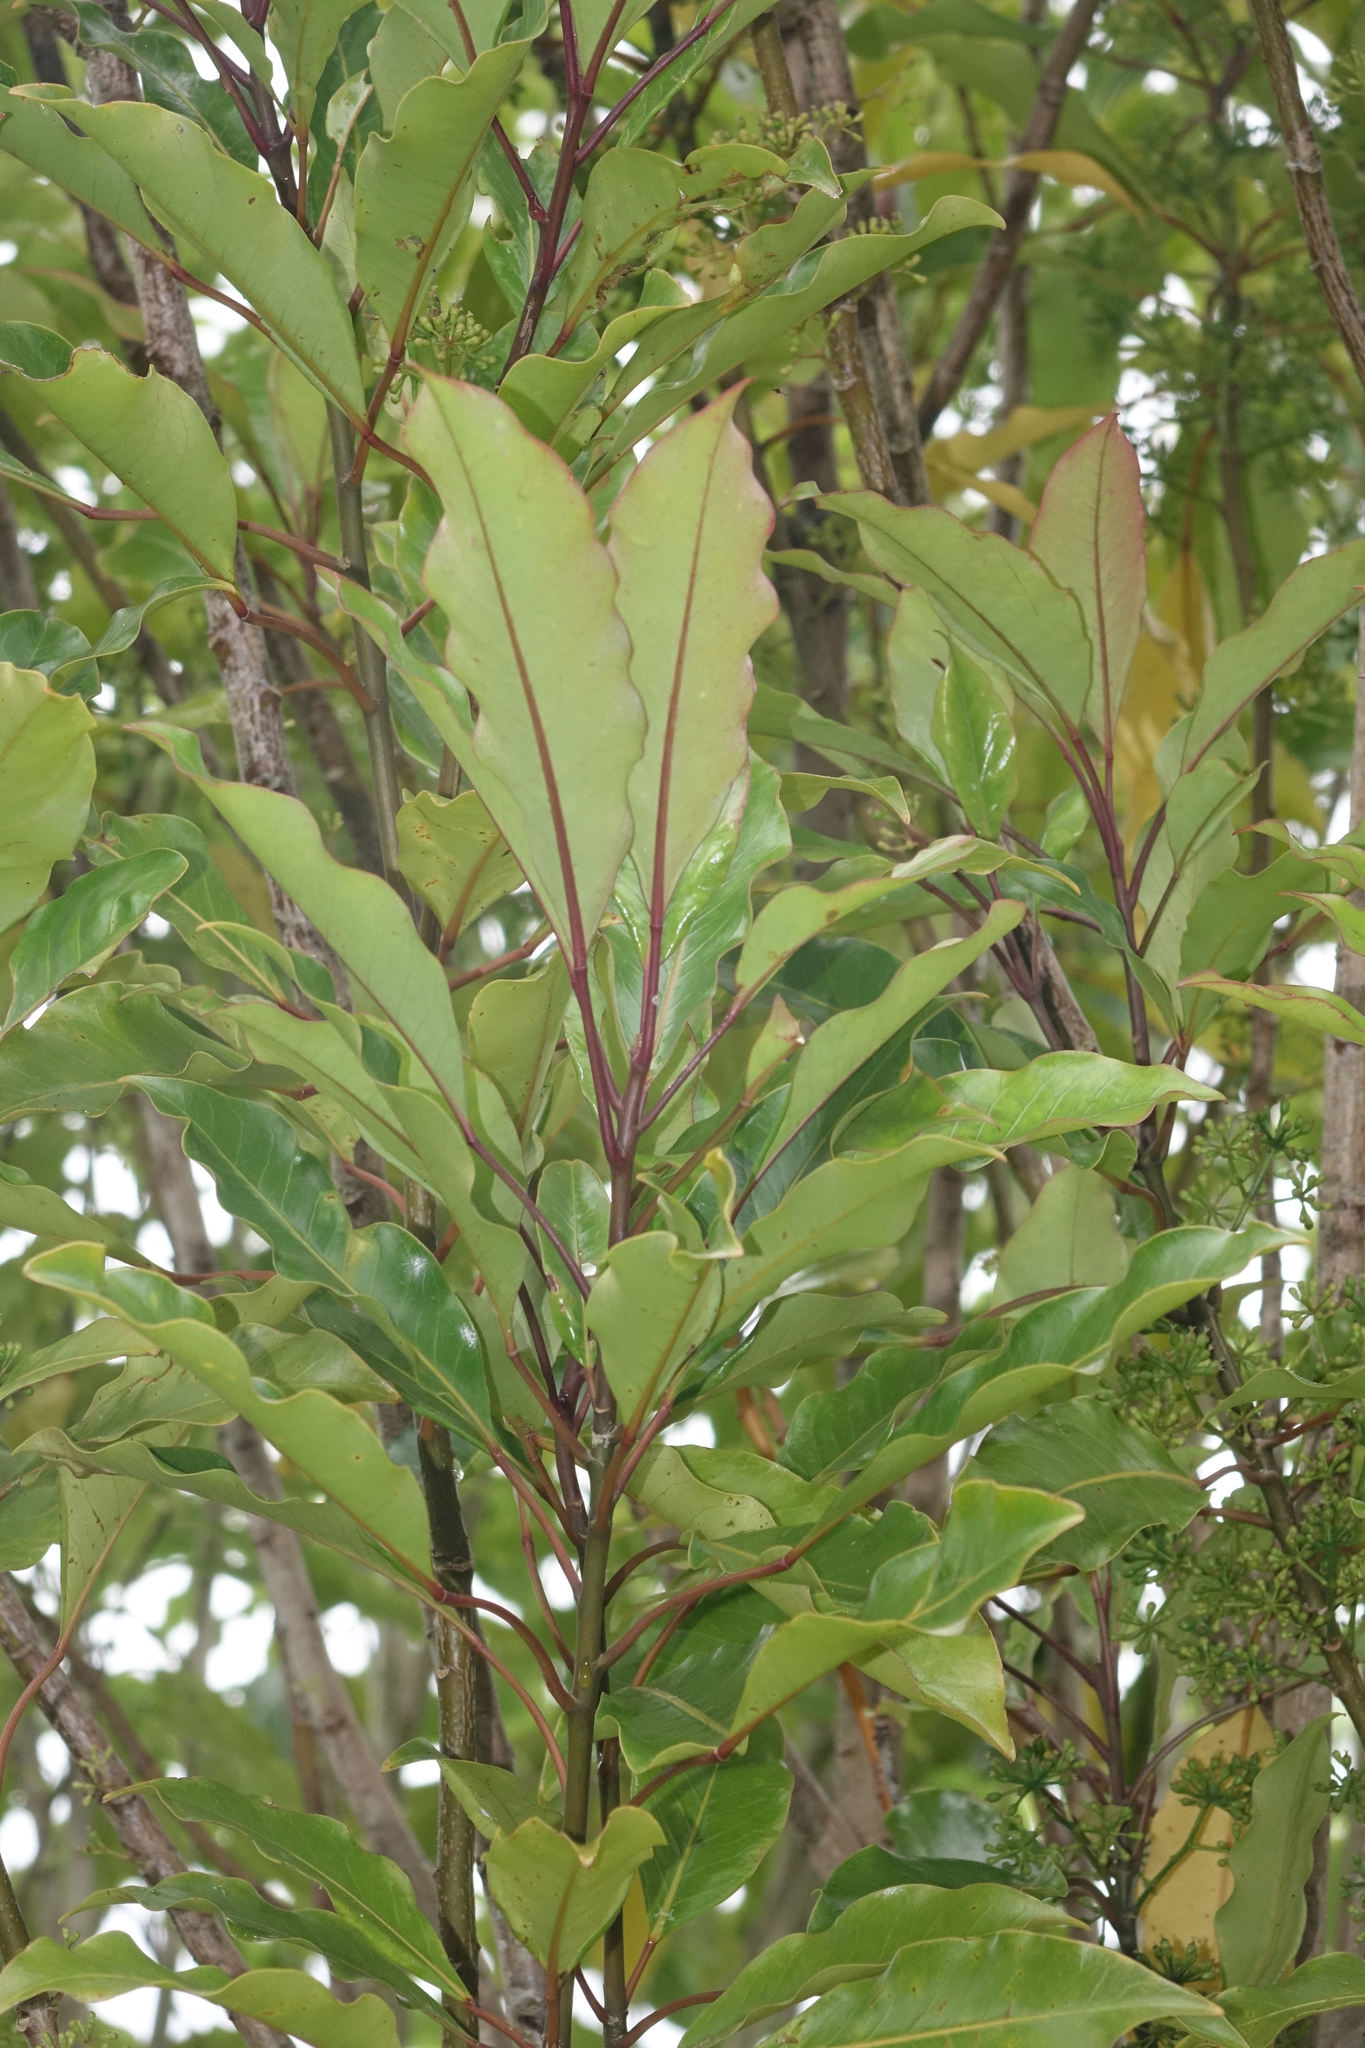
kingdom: Plantae
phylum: Tracheophyta
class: Magnoliopsida
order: Apiales
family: Araliaceae
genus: Raukaua
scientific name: Raukaua edgerleyi
